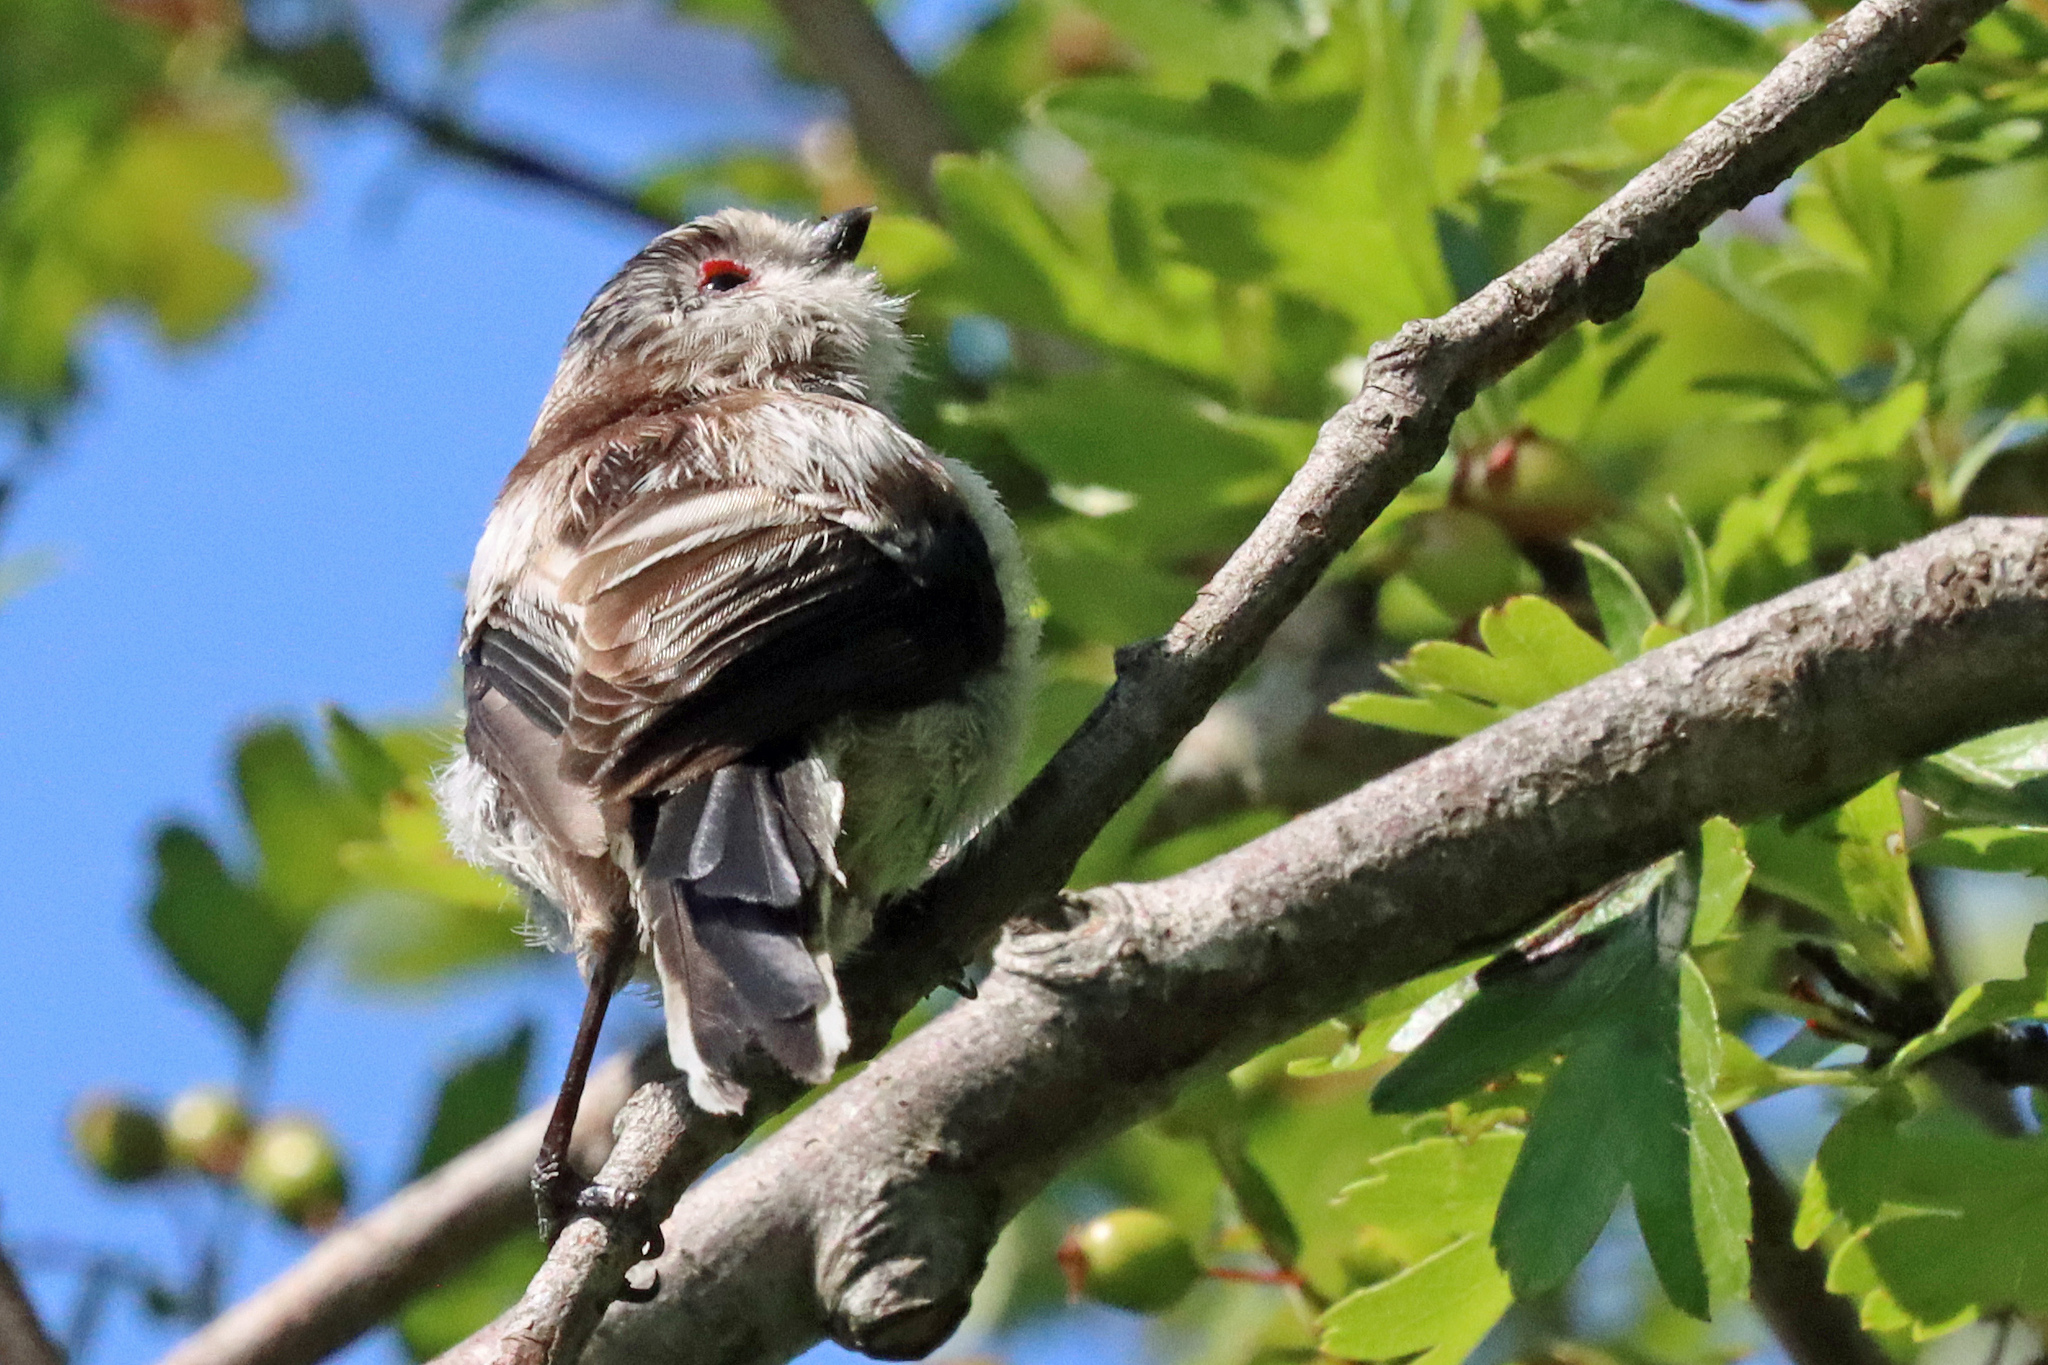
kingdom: Animalia
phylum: Chordata
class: Aves
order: Passeriformes
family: Aegithalidae
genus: Aegithalos
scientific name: Aegithalos caudatus
